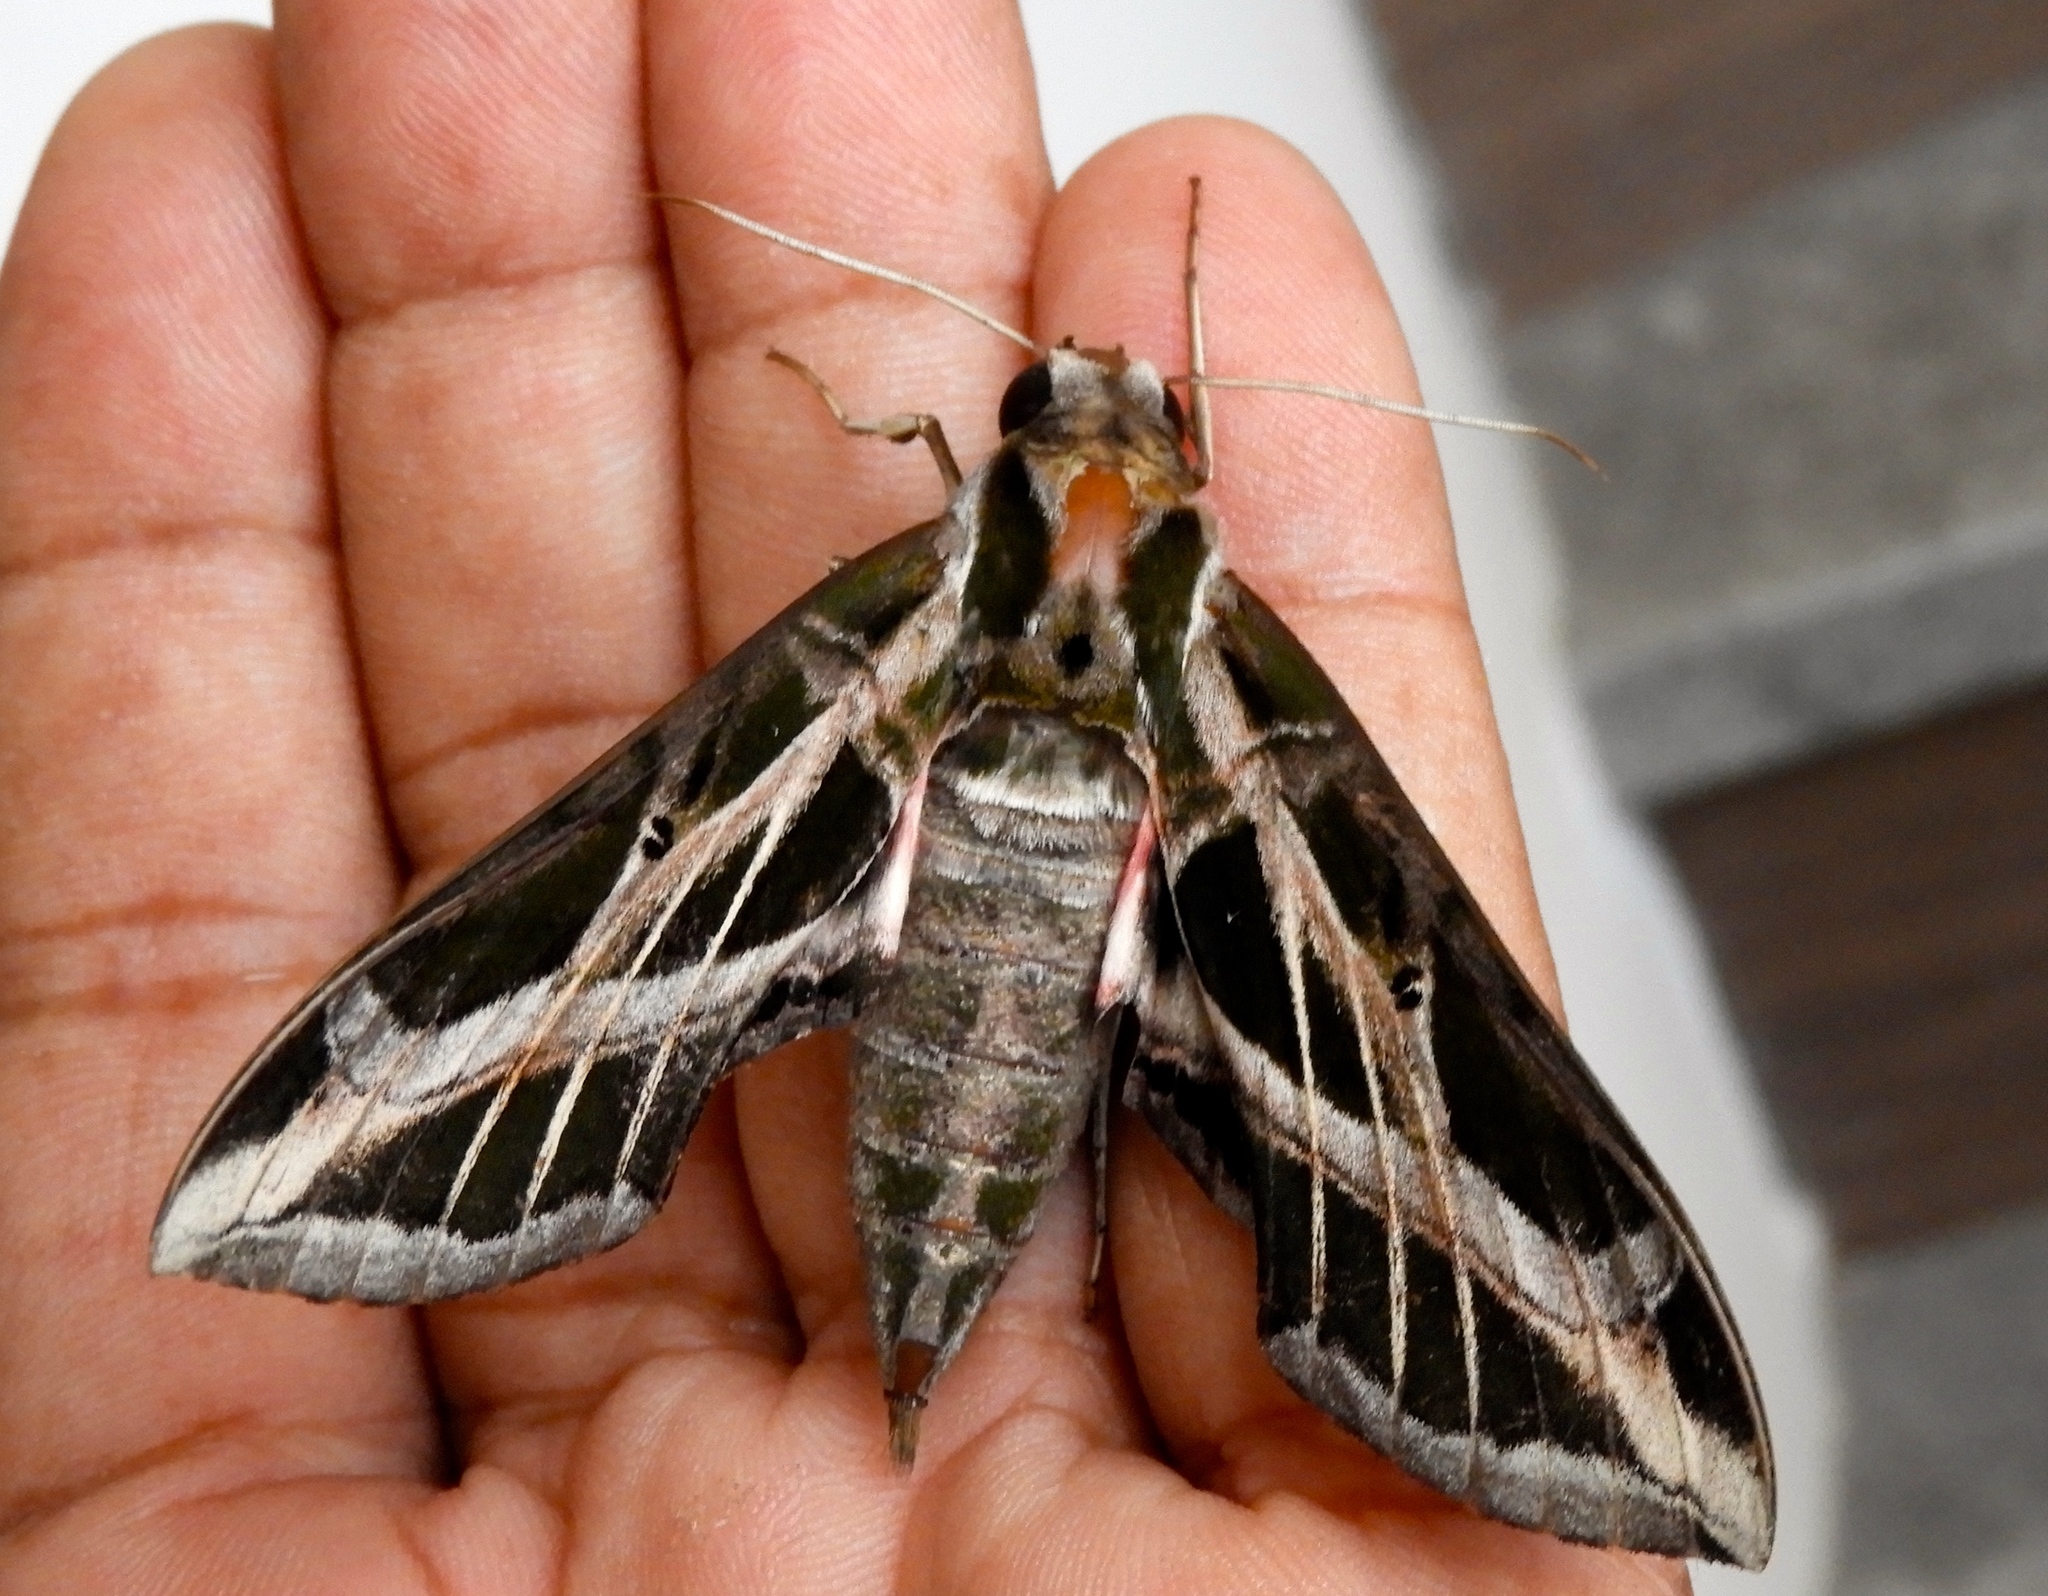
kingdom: Animalia
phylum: Arthropoda
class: Insecta
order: Lepidoptera
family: Sphingidae
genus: Eumorpha
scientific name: Eumorpha vitis
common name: Vine sphinx
